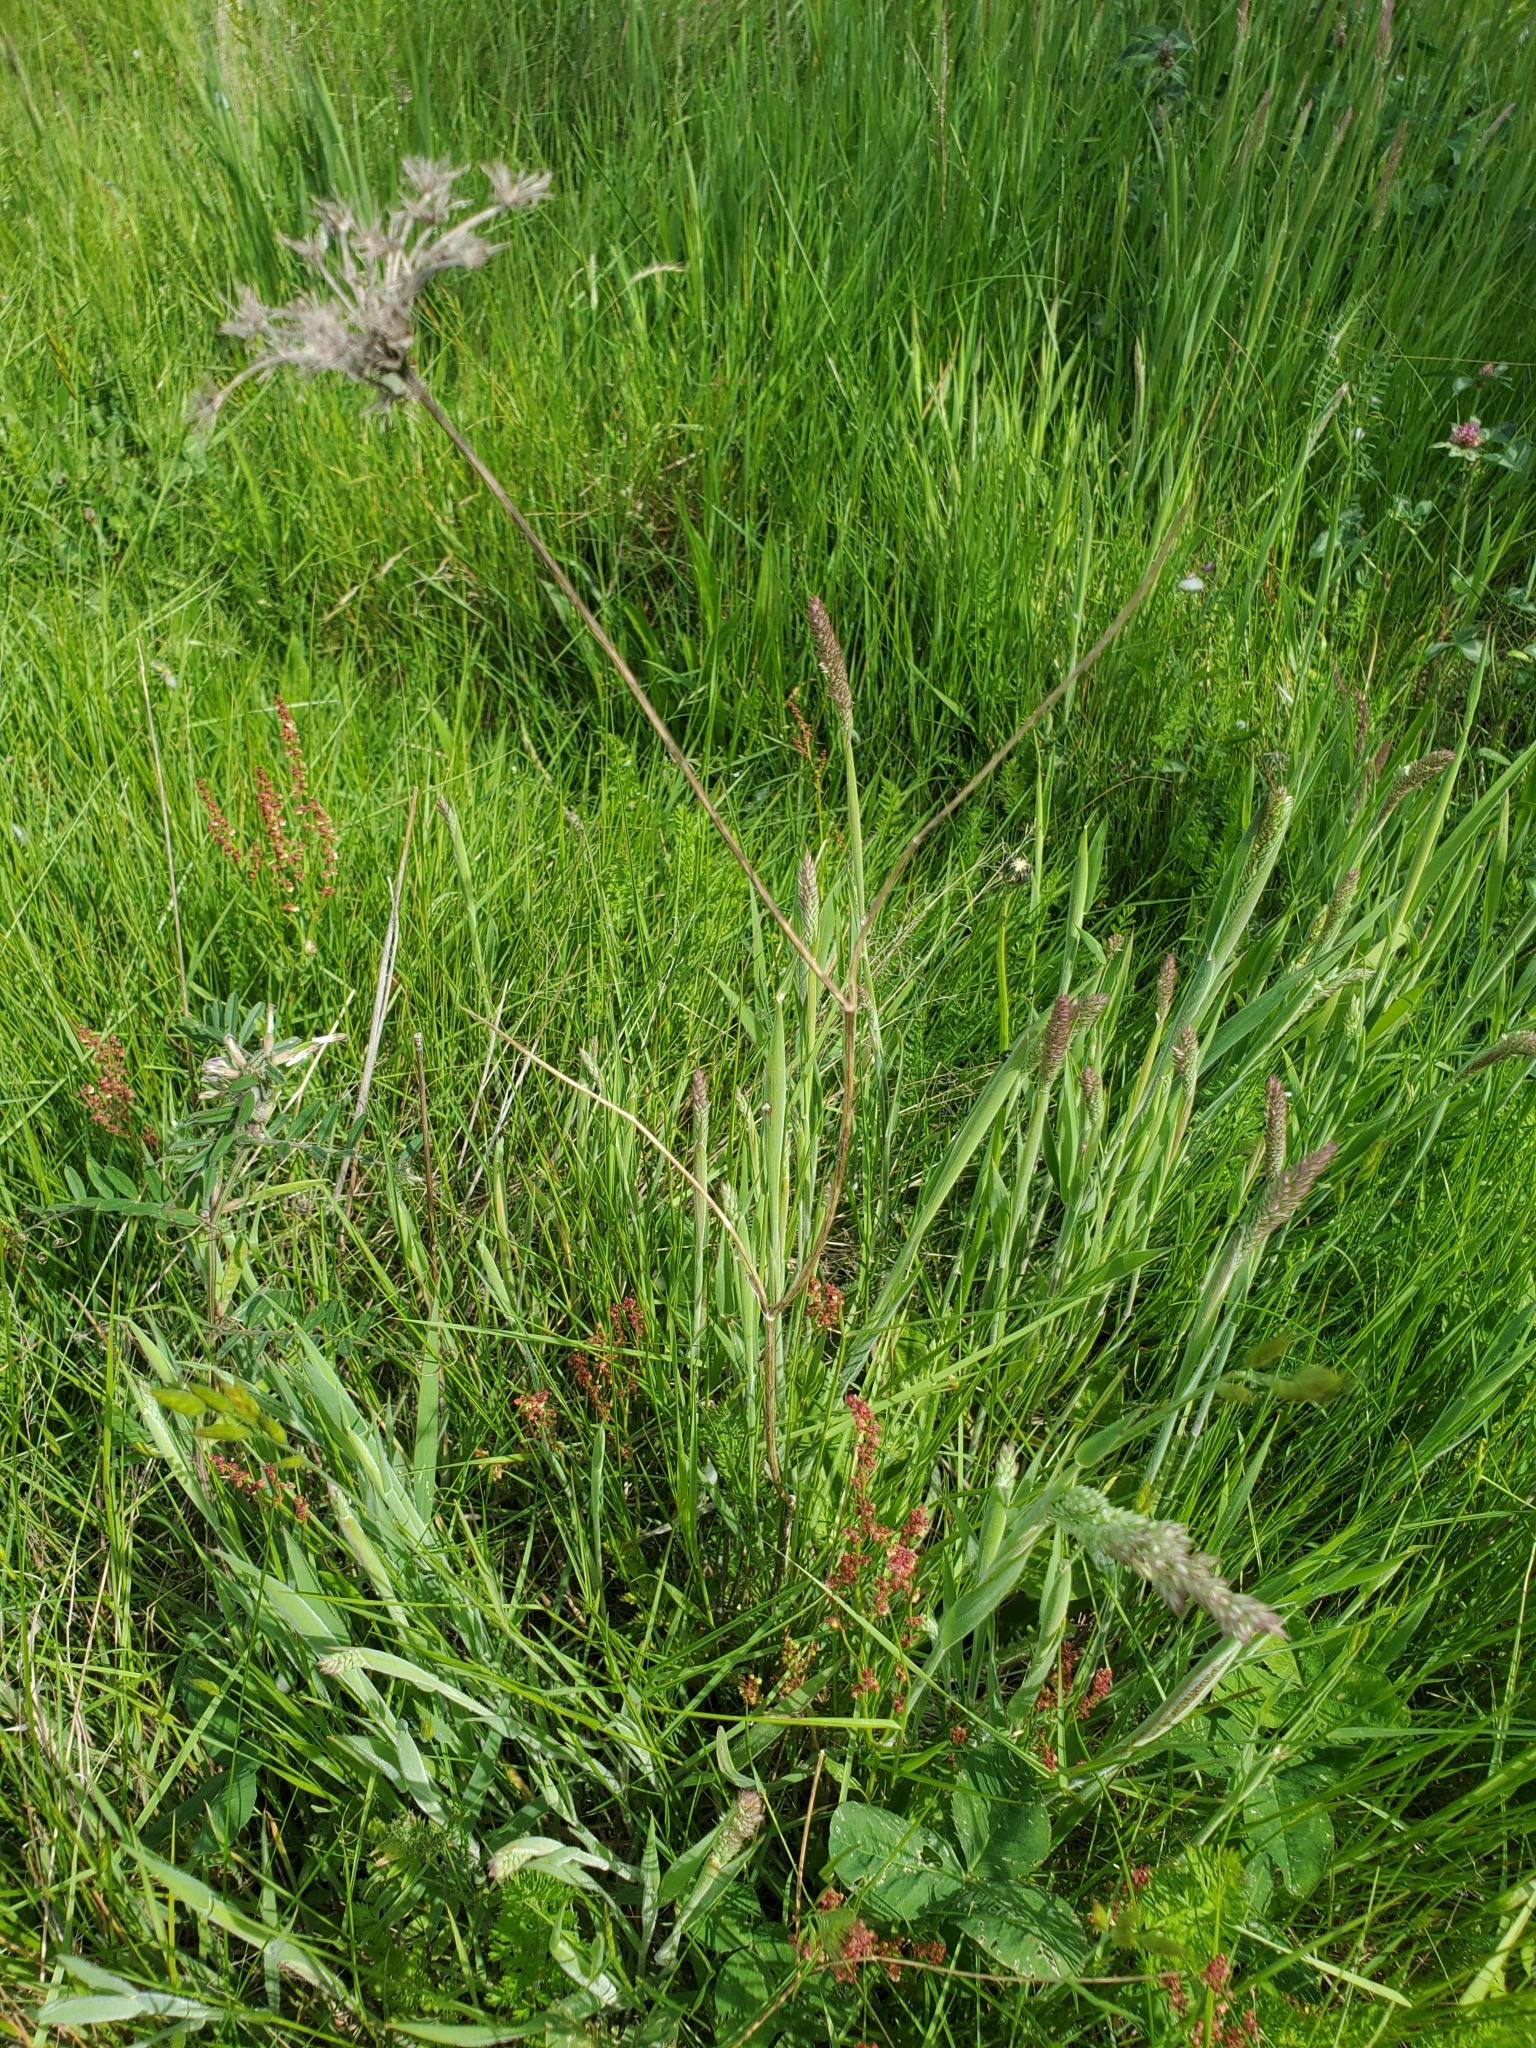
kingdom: Plantae
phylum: Tracheophyta
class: Magnoliopsida
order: Apiales
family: Apiaceae
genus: Daucus
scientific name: Daucus carota
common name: Wild carrot
